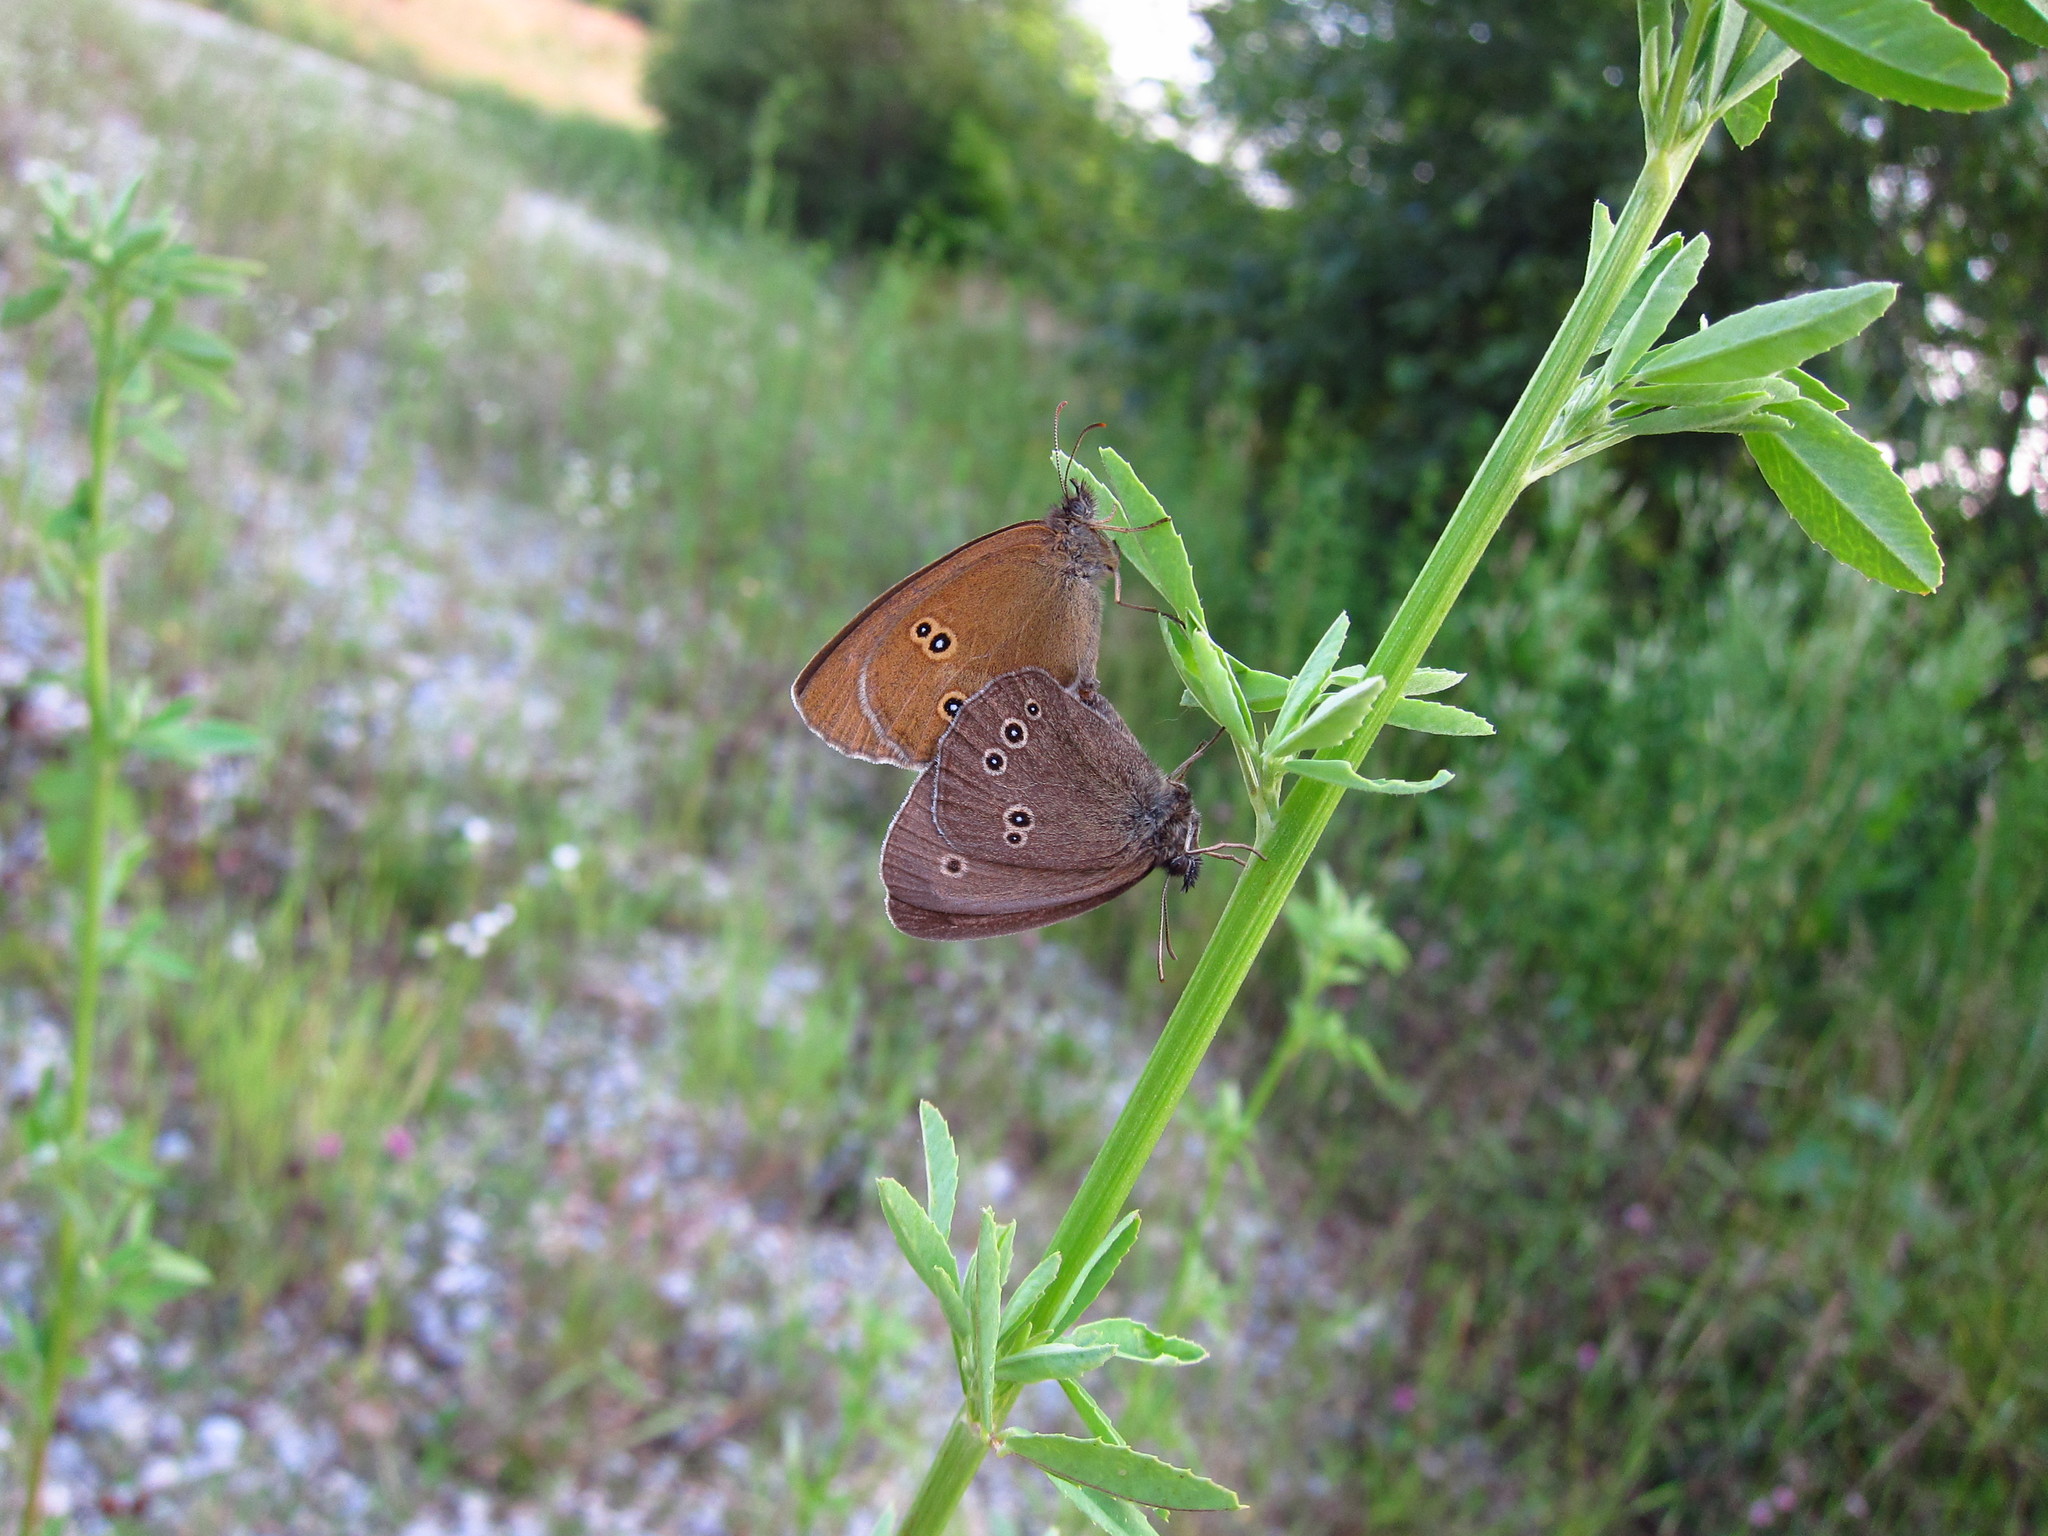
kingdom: Animalia
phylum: Arthropoda
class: Insecta
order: Lepidoptera
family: Nymphalidae
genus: Aphantopus
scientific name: Aphantopus hyperantus
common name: Ringlet
